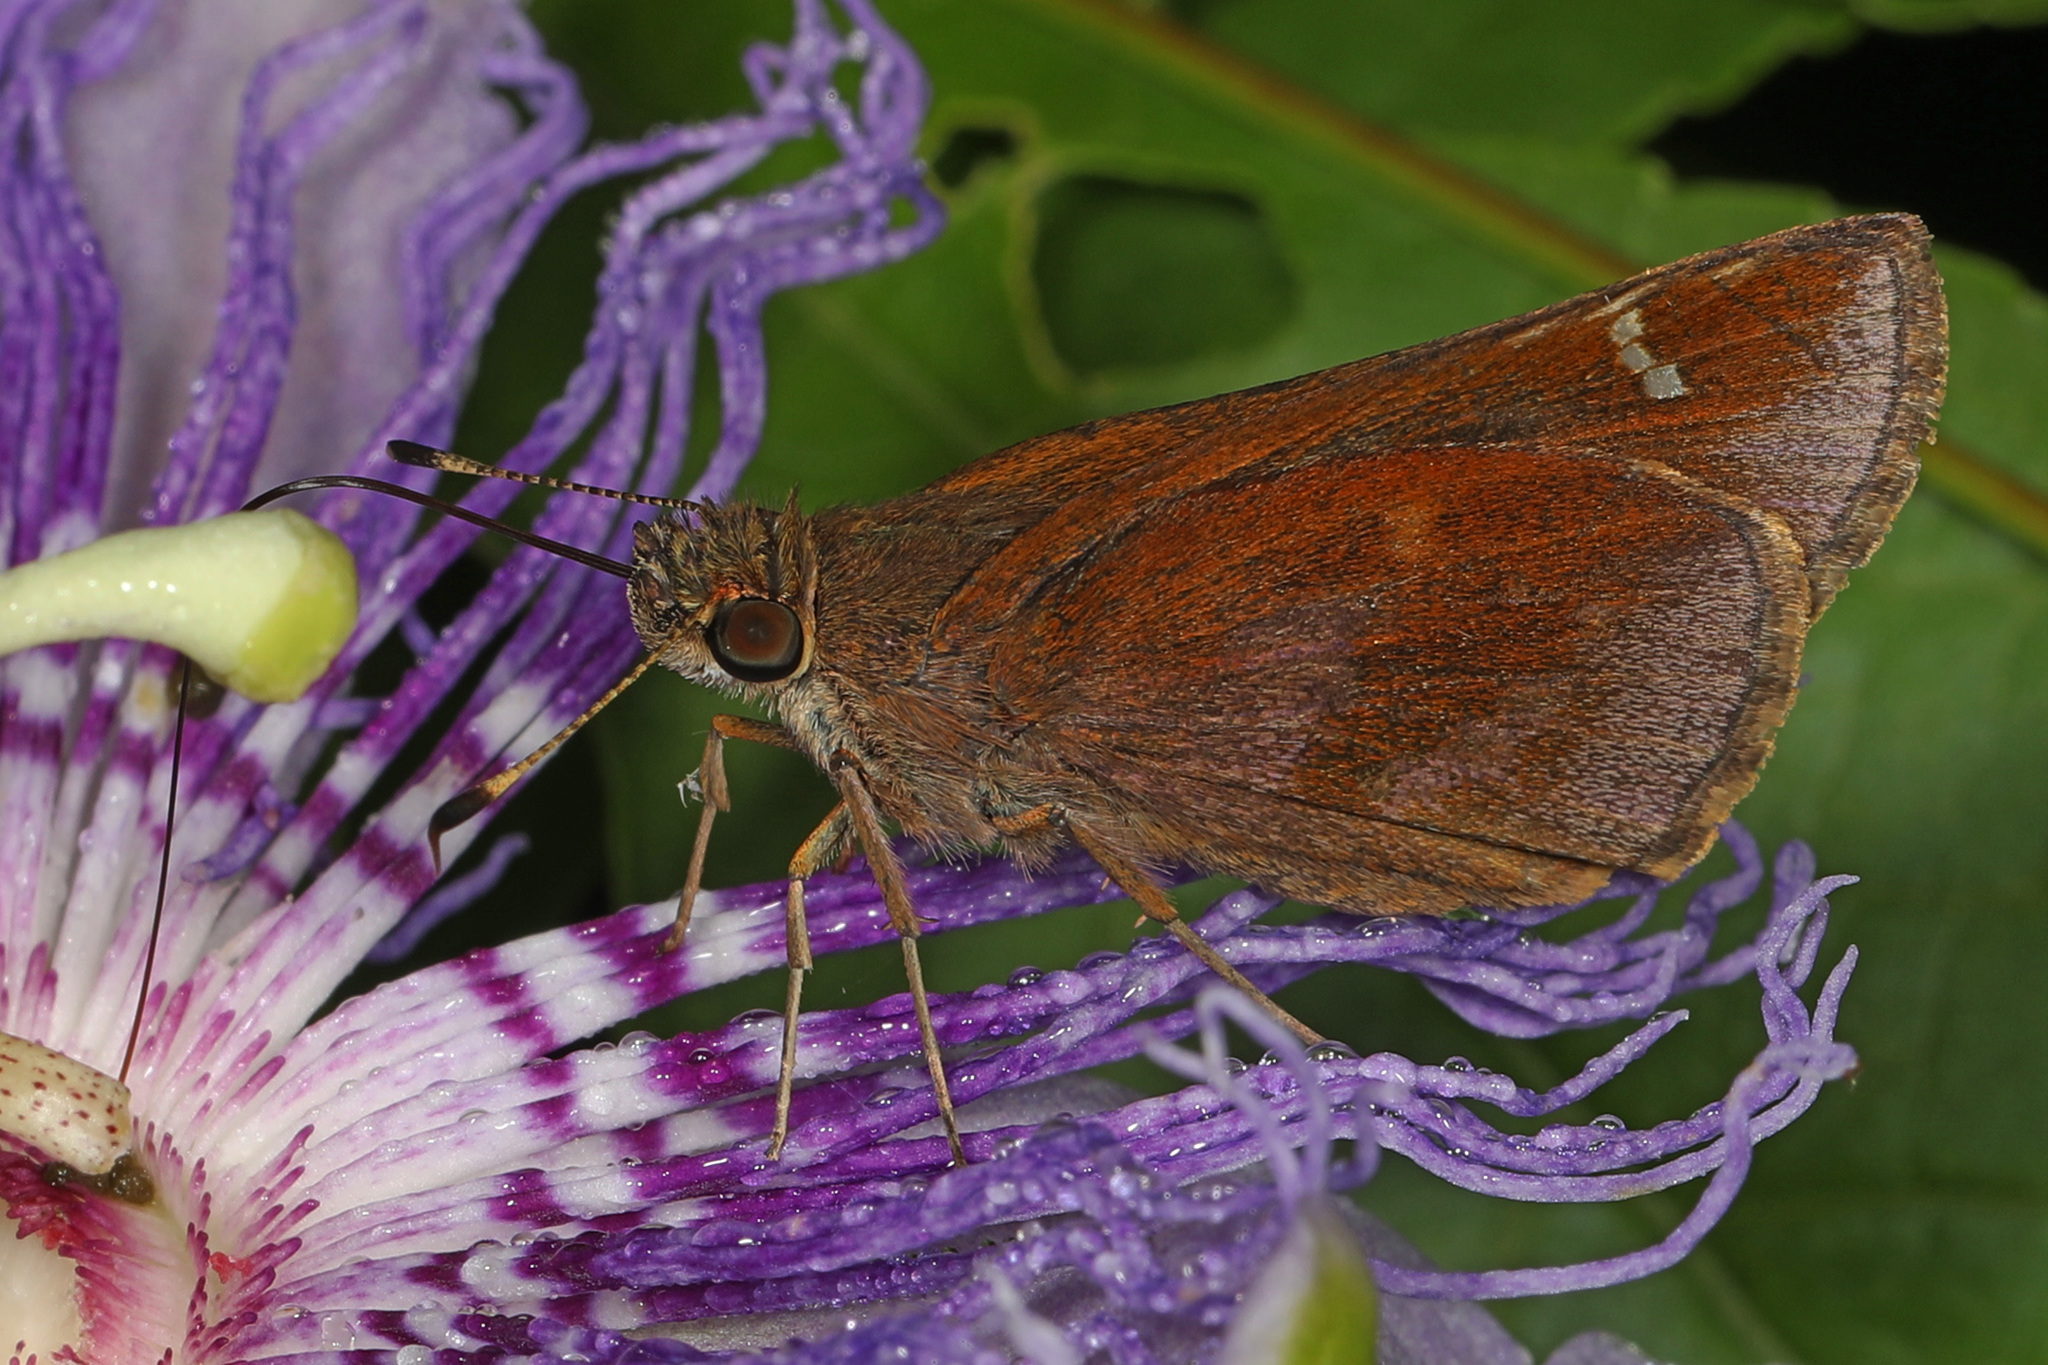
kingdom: Animalia
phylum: Arthropoda
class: Insecta
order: Lepidoptera
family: Hesperiidae
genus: Lerema
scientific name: Lerema accius
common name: Clouded skipper
